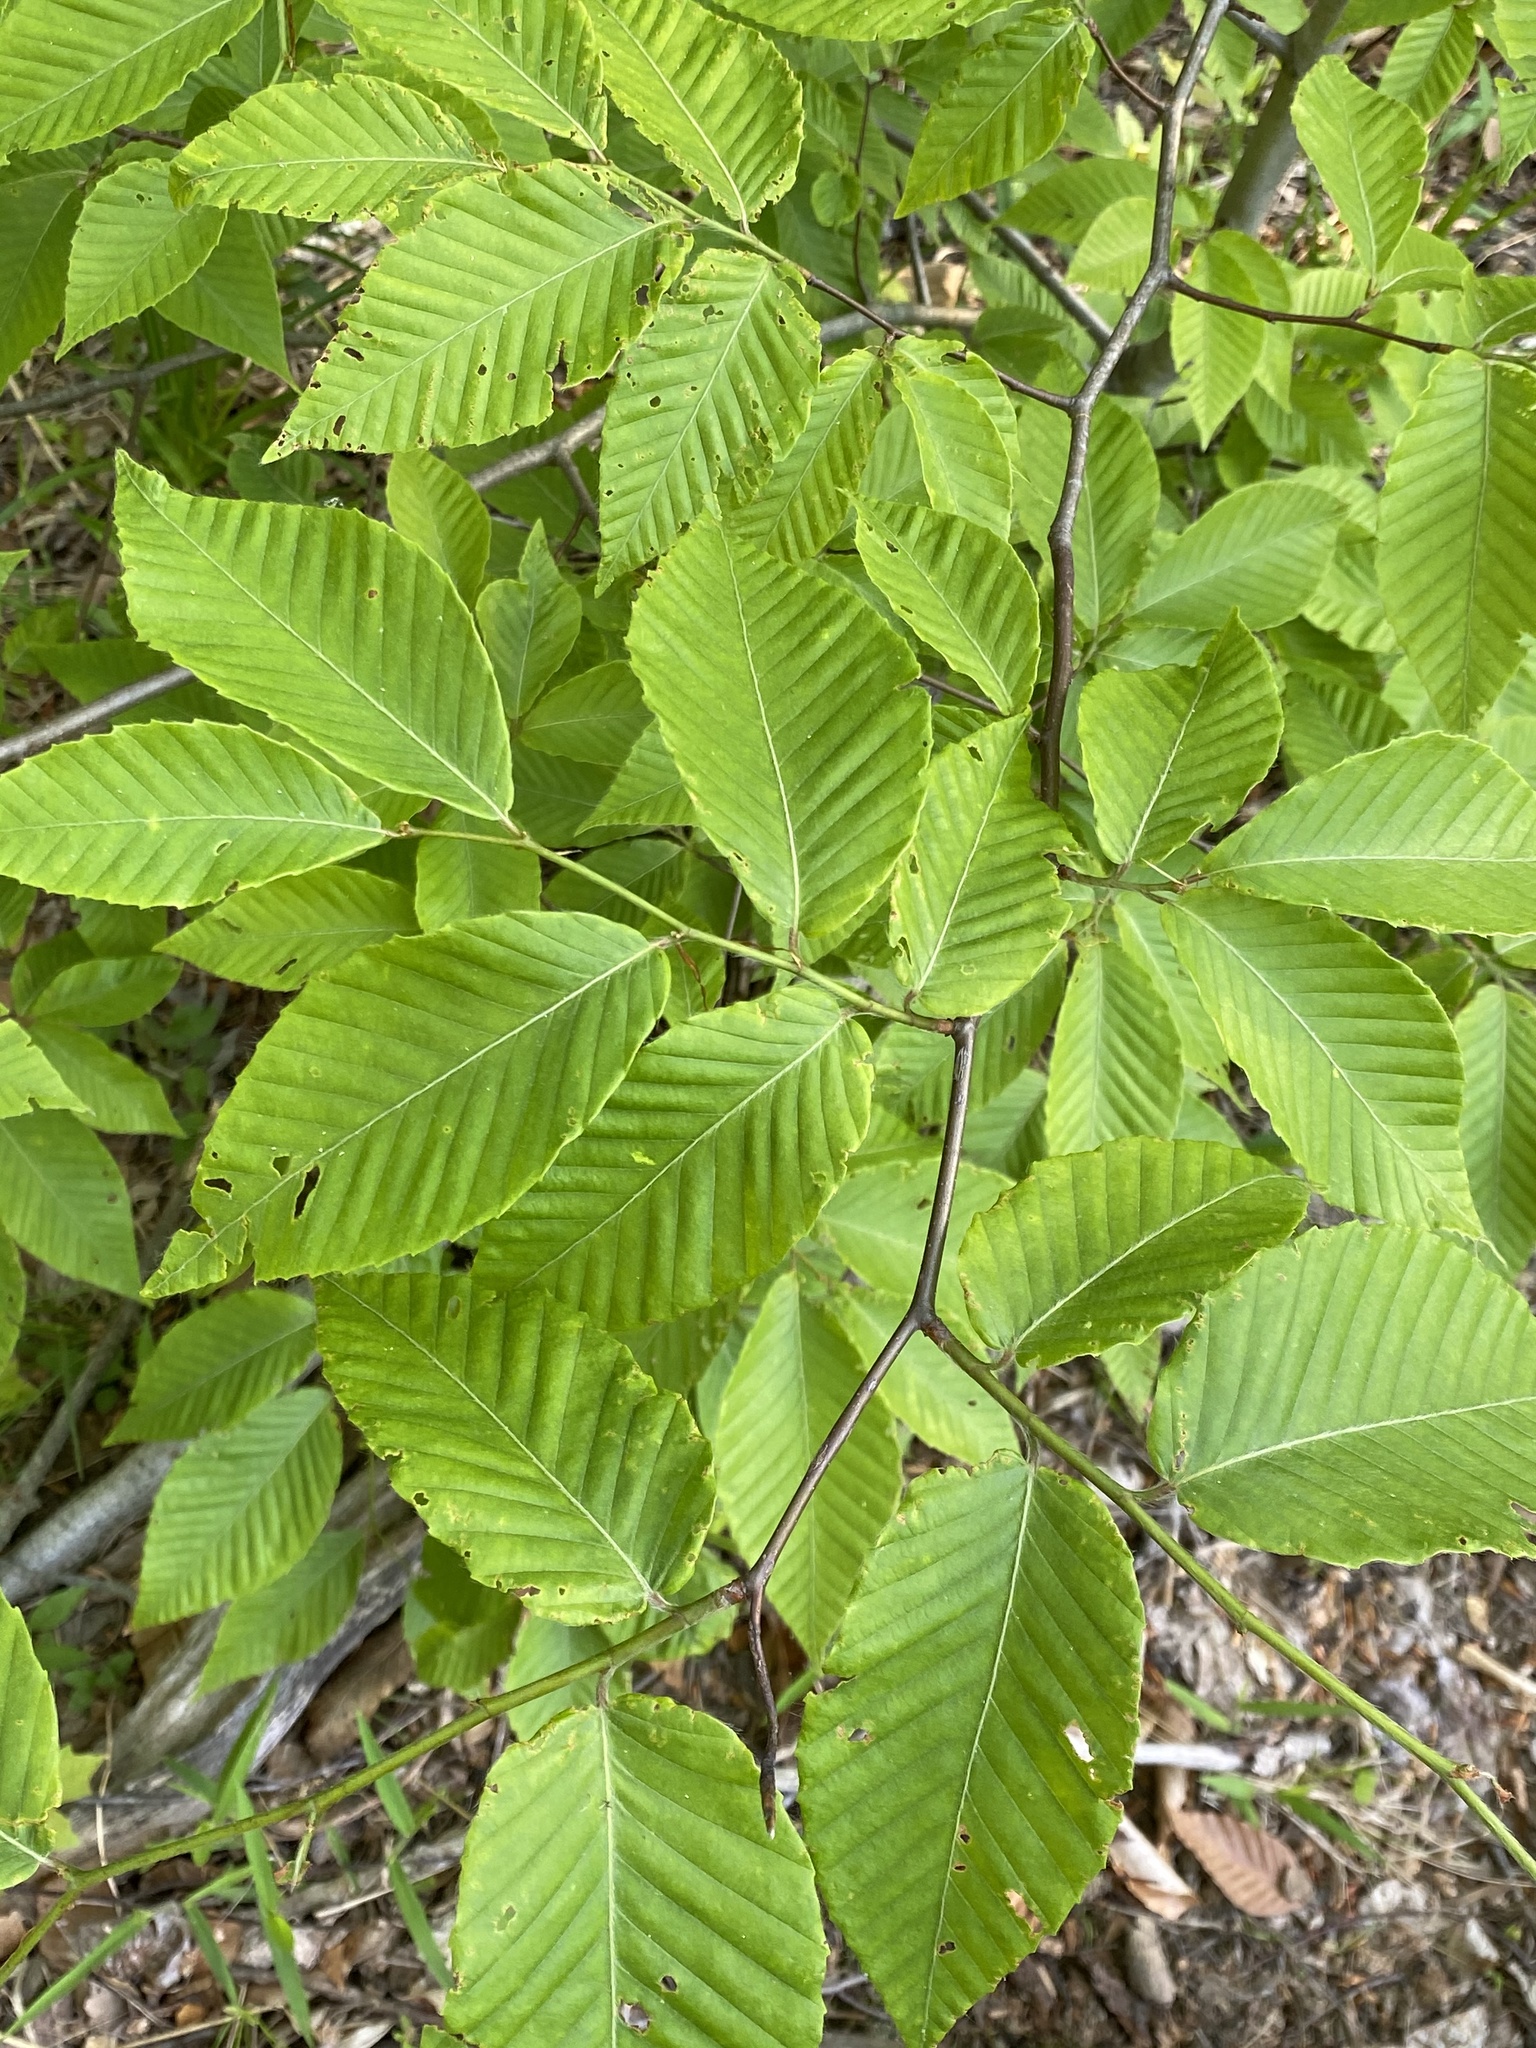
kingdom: Plantae
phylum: Tracheophyta
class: Magnoliopsida
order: Fagales
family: Fagaceae
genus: Fagus
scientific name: Fagus grandifolia
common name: American beech
